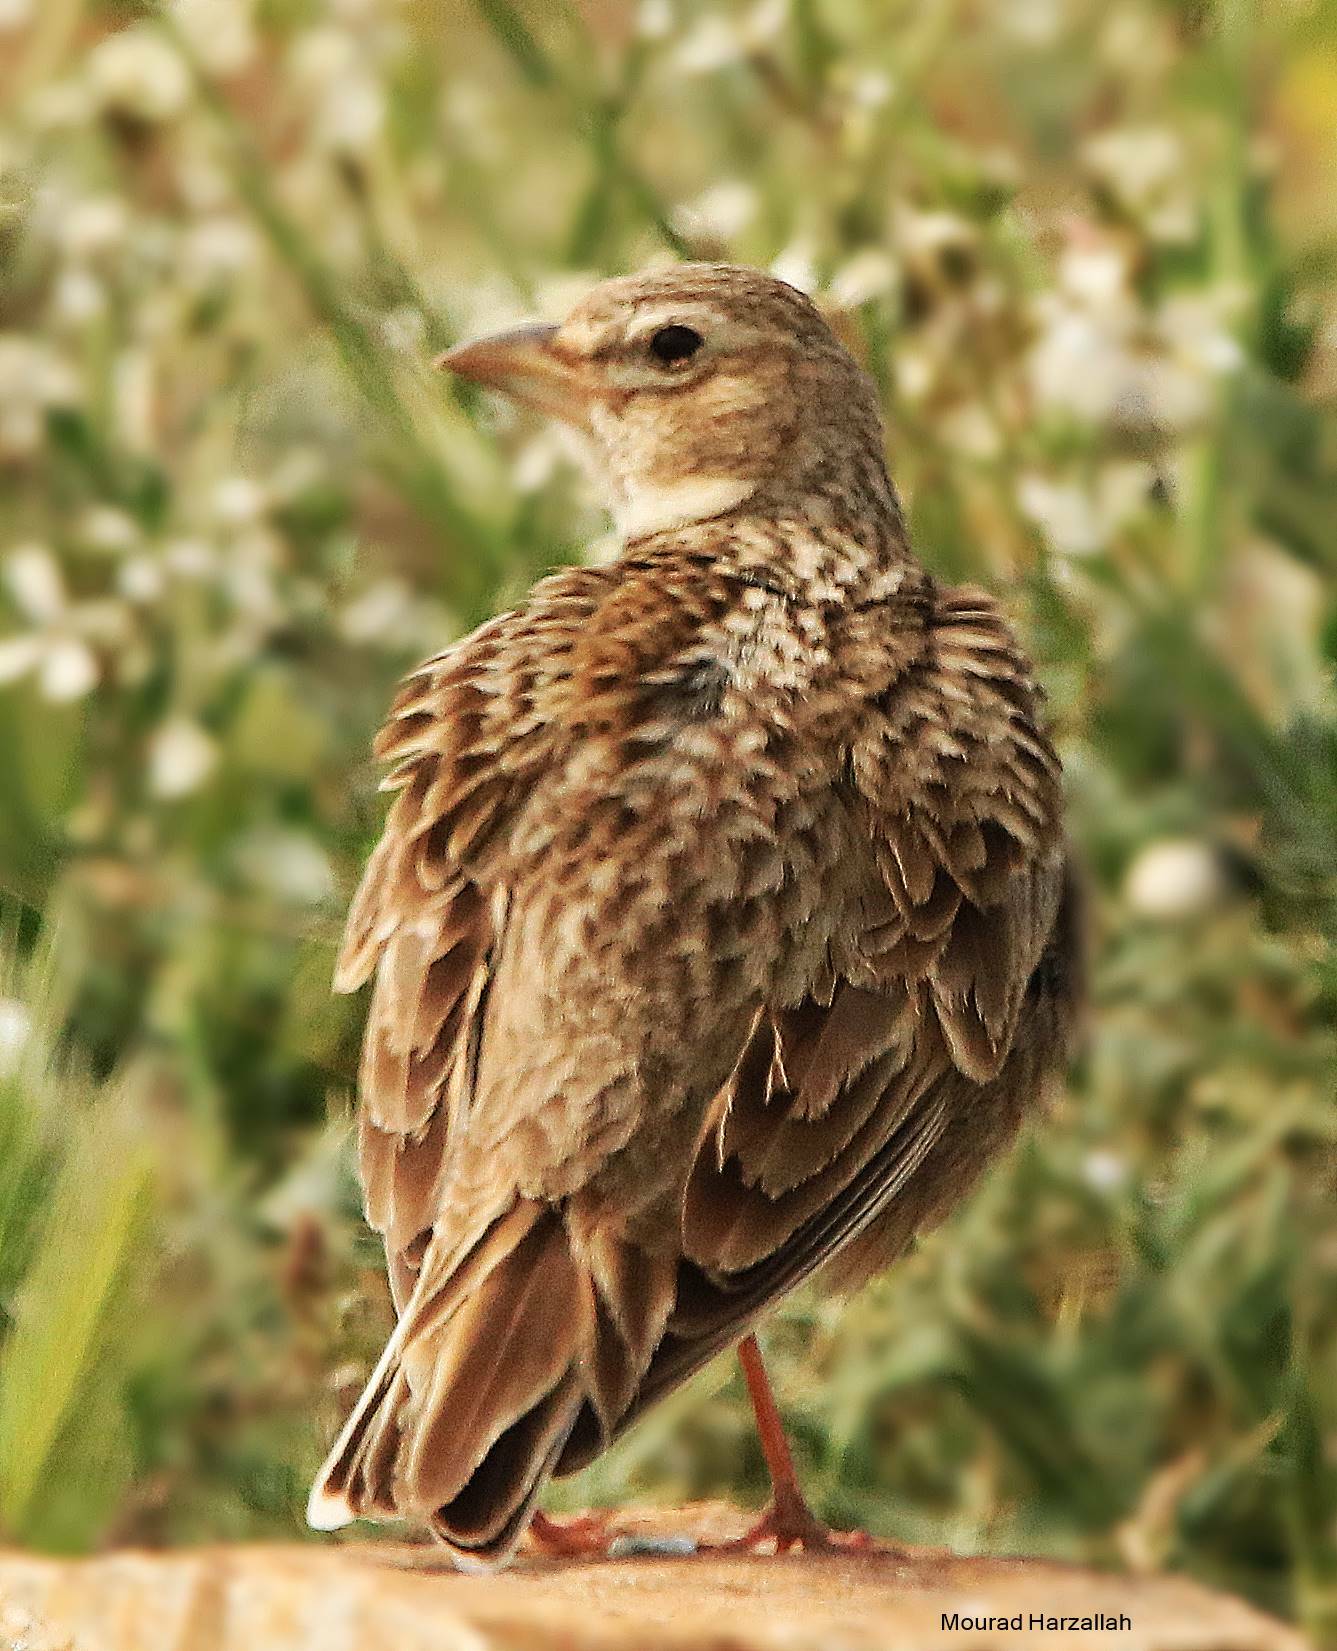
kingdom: Animalia
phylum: Chordata
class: Aves
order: Passeriformes
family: Alaudidae
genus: Melanocorypha
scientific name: Melanocorypha calandra
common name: Calandra lark
